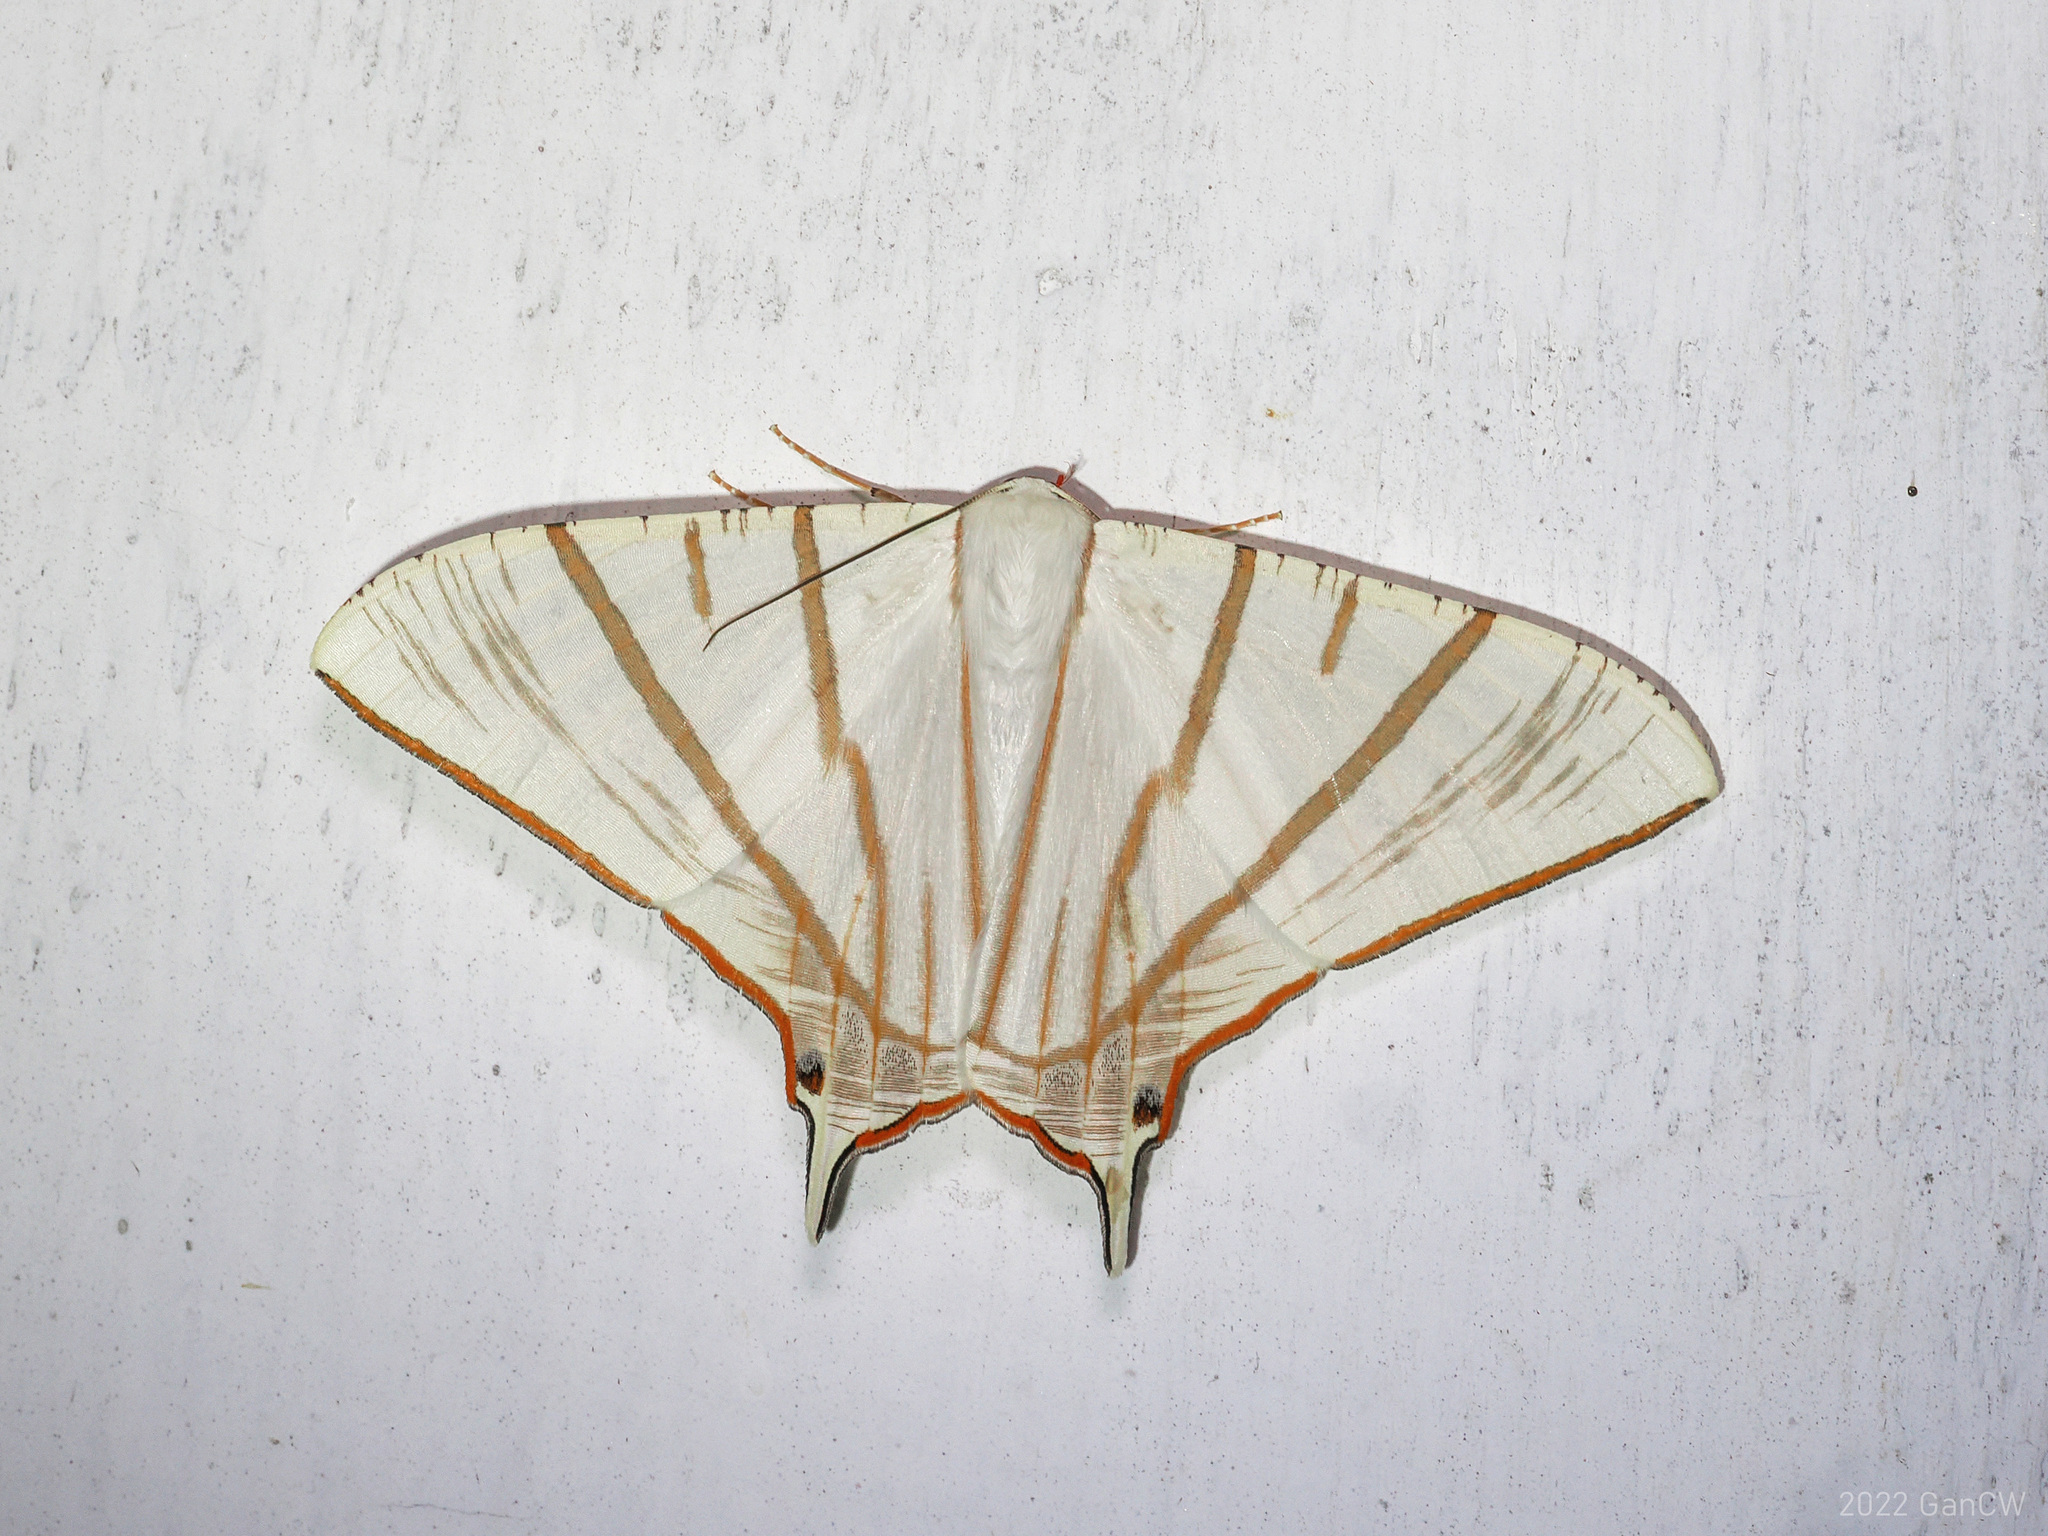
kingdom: Animalia
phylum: Arthropoda
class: Insecta
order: Lepidoptera
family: Geometridae
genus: Ourapteryx
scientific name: Ourapteryx podaliriata
